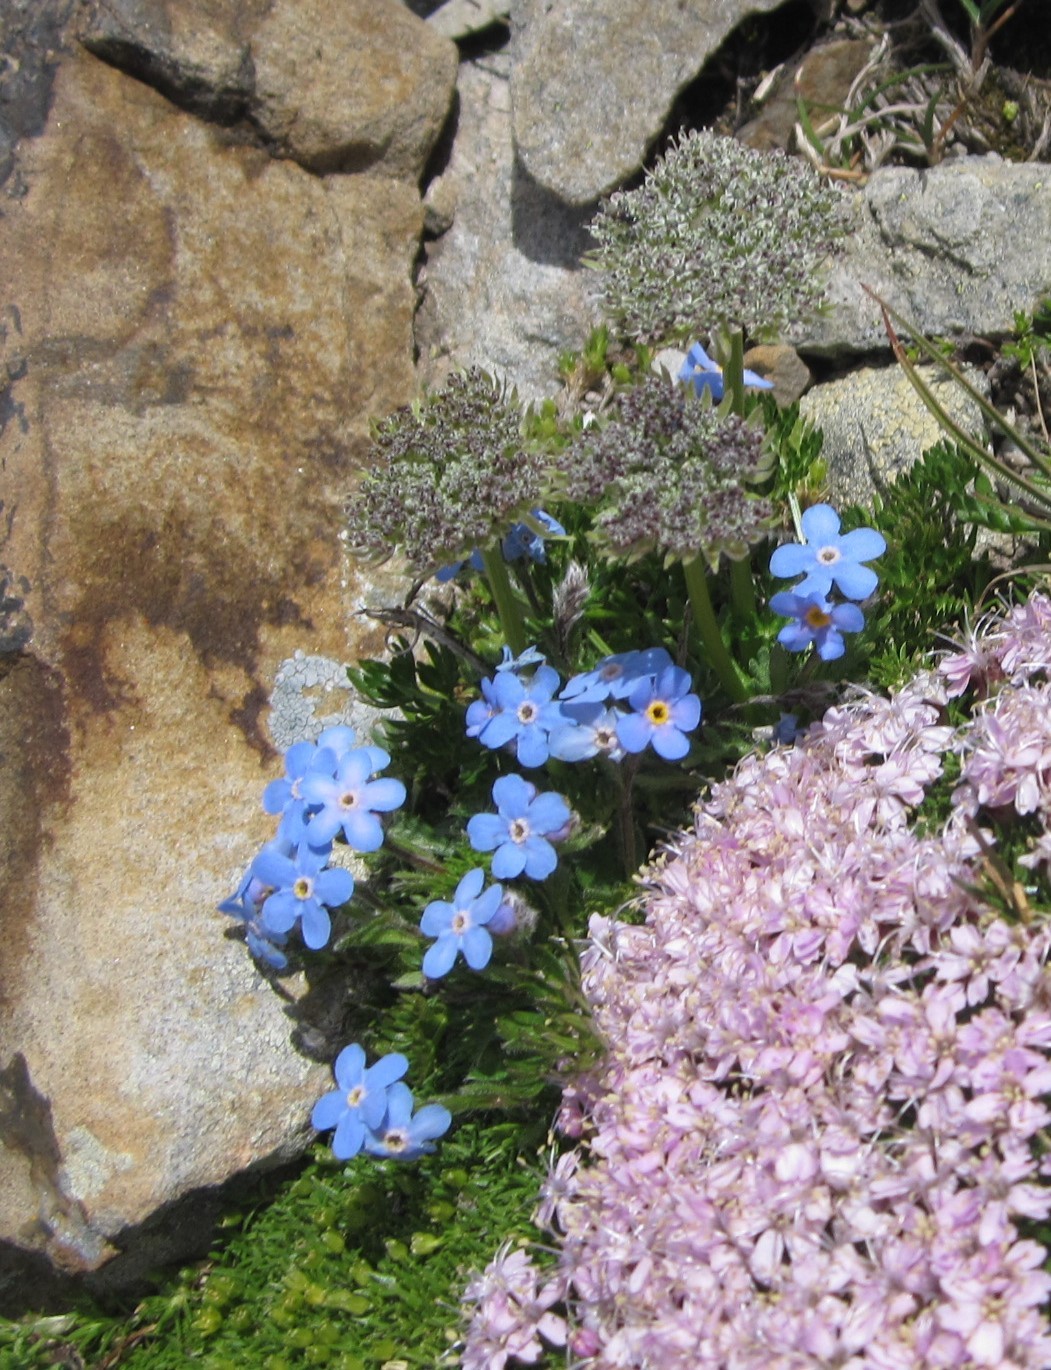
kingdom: Plantae
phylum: Tracheophyta
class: Magnoliopsida
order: Boraginales
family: Boraginaceae
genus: Eritrichium
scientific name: Eritrichium nanum
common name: King-of-the-alps
